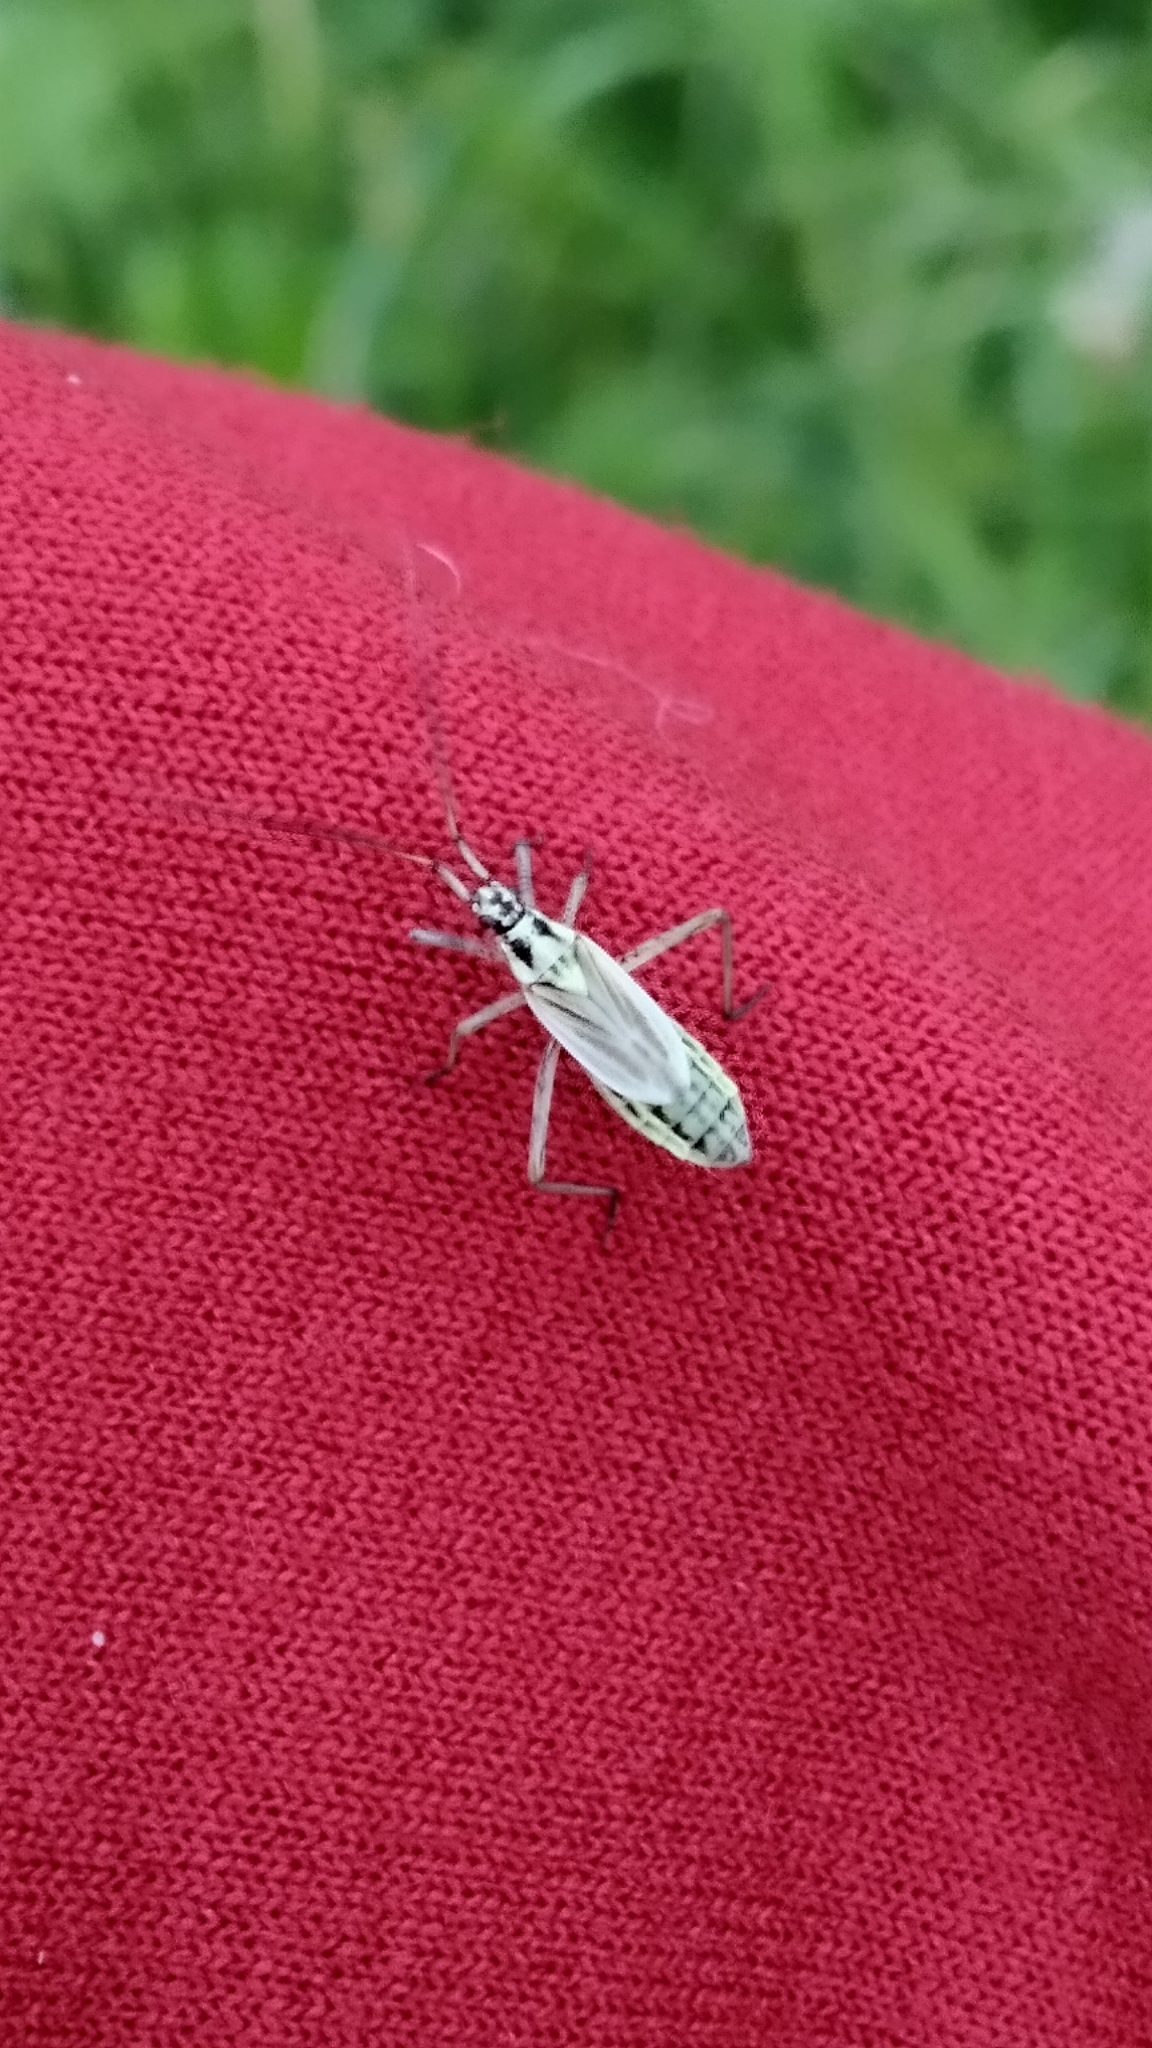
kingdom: Animalia
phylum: Arthropoda
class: Insecta
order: Hemiptera
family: Miridae
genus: Leptopterna
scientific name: Leptopterna dolabrata
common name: Meadow plant bug
